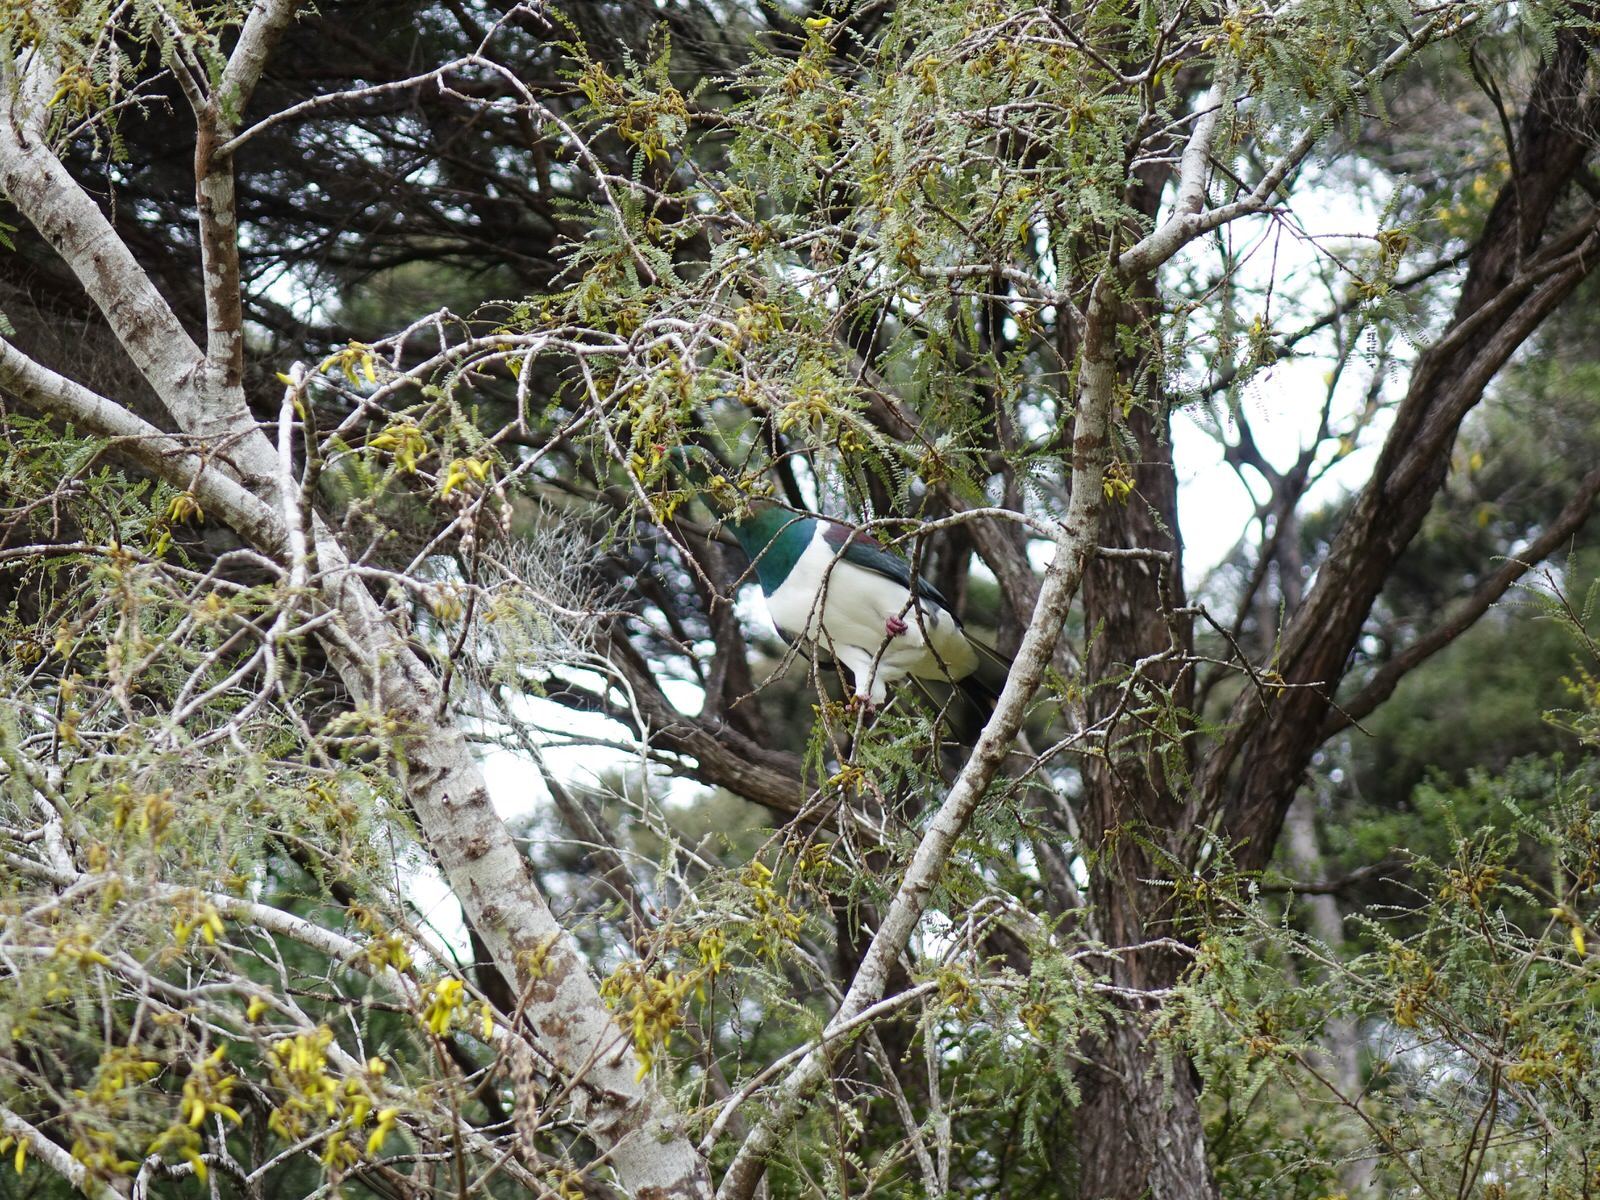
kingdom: Animalia
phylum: Chordata
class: Aves
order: Columbiformes
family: Columbidae
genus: Hemiphaga
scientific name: Hemiphaga novaeseelandiae
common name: New zealand pigeon
